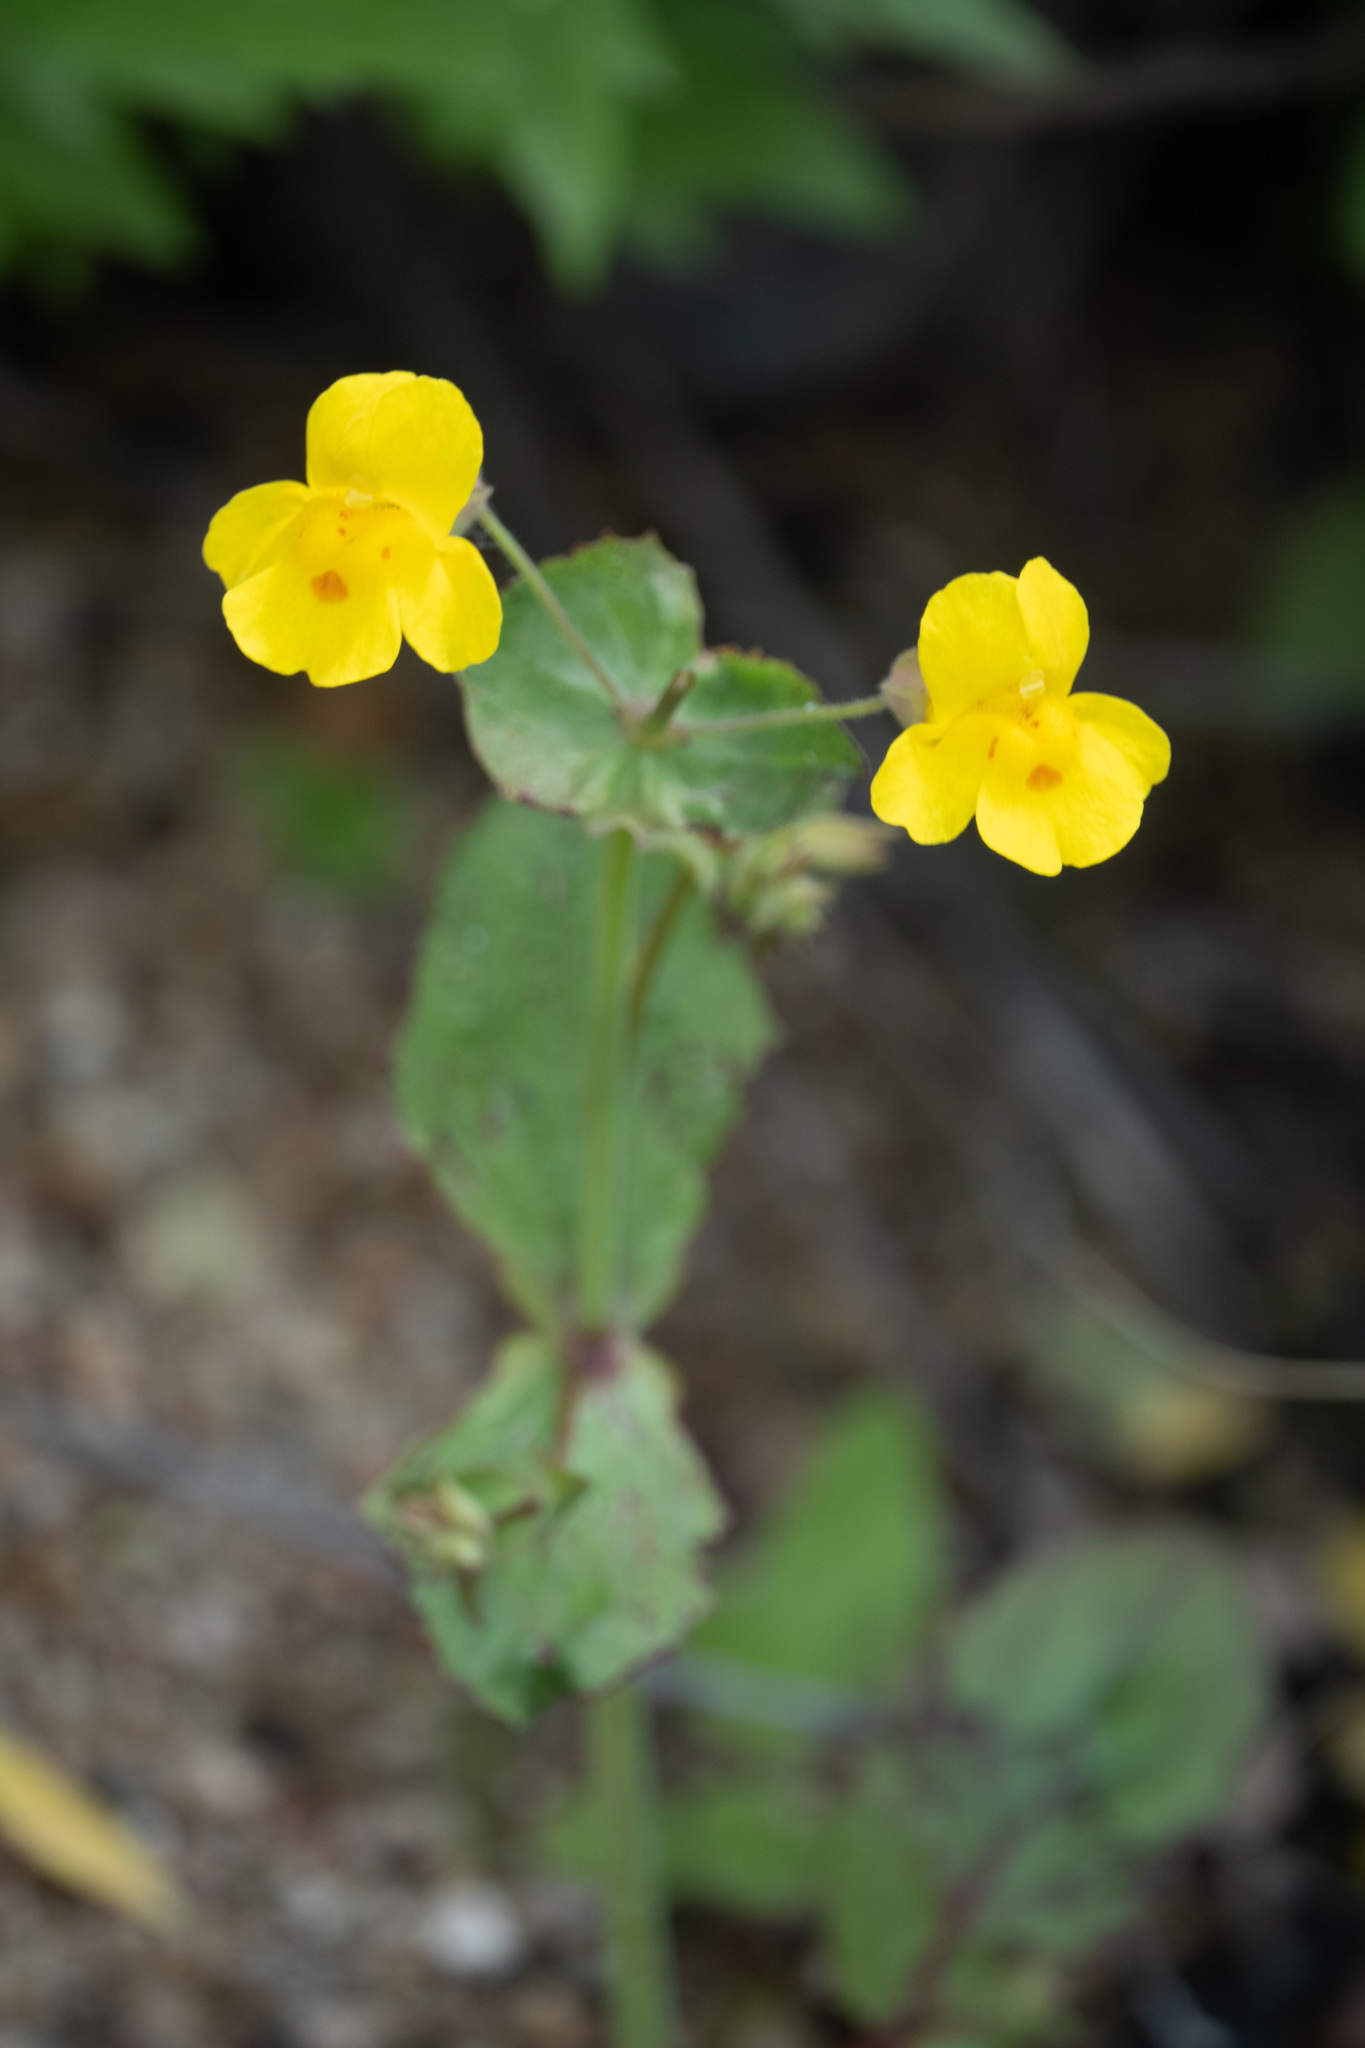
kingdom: Plantae
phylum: Tracheophyta
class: Magnoliopsida
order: Lamiales
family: Phrymaceae
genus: Erythranthe
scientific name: Erythranthe guttata
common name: Monkeyflower
